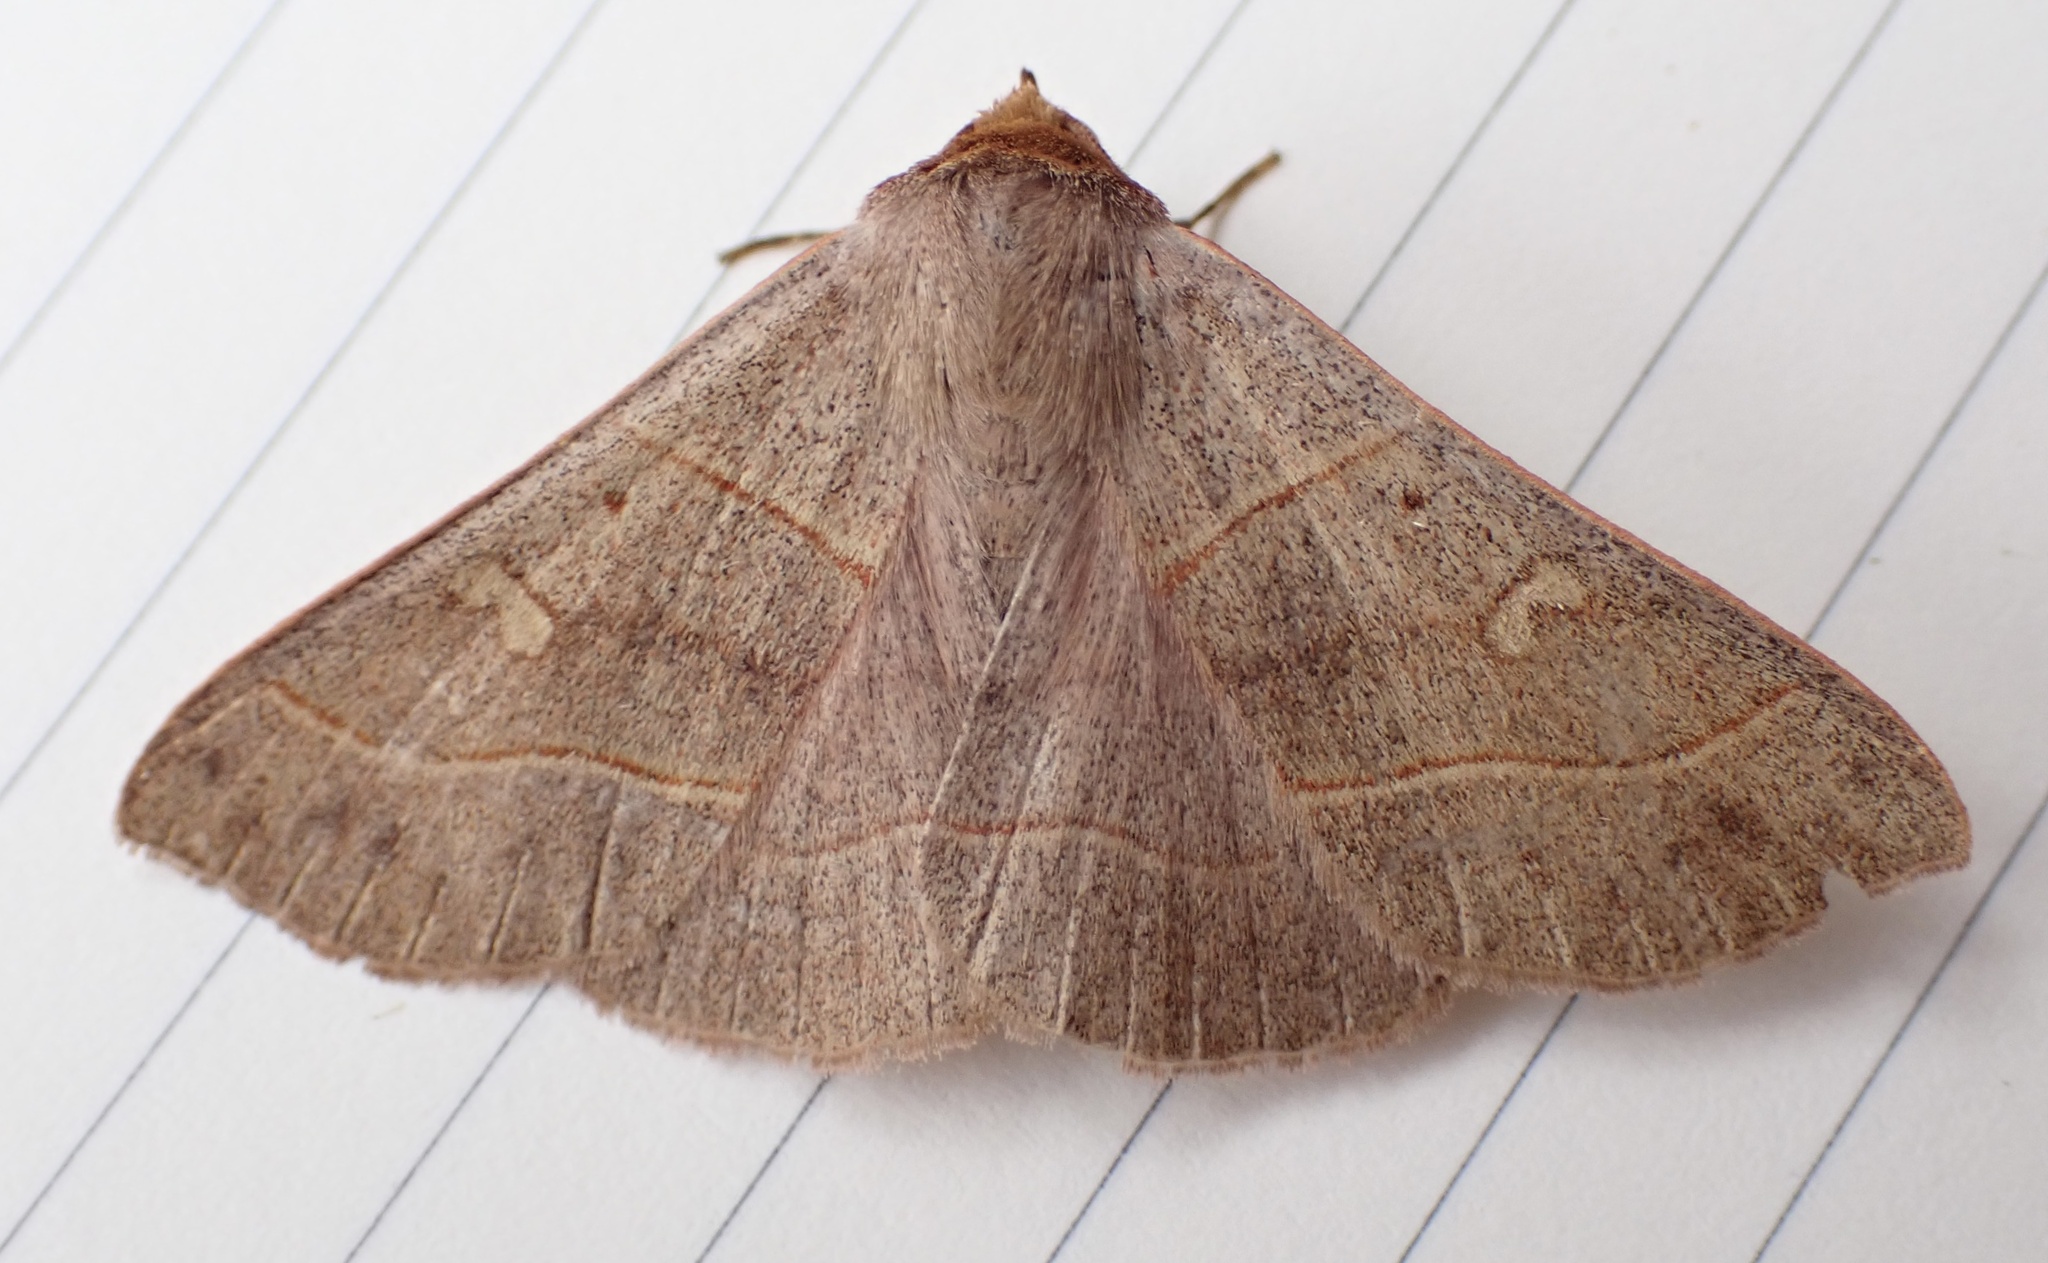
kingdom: Animalia
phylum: Arthropoda
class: Insecta
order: Lepidoptera
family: Erebidae
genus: Panopoda
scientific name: Panopoda rufimargo
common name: Red-lined panopoda moth
